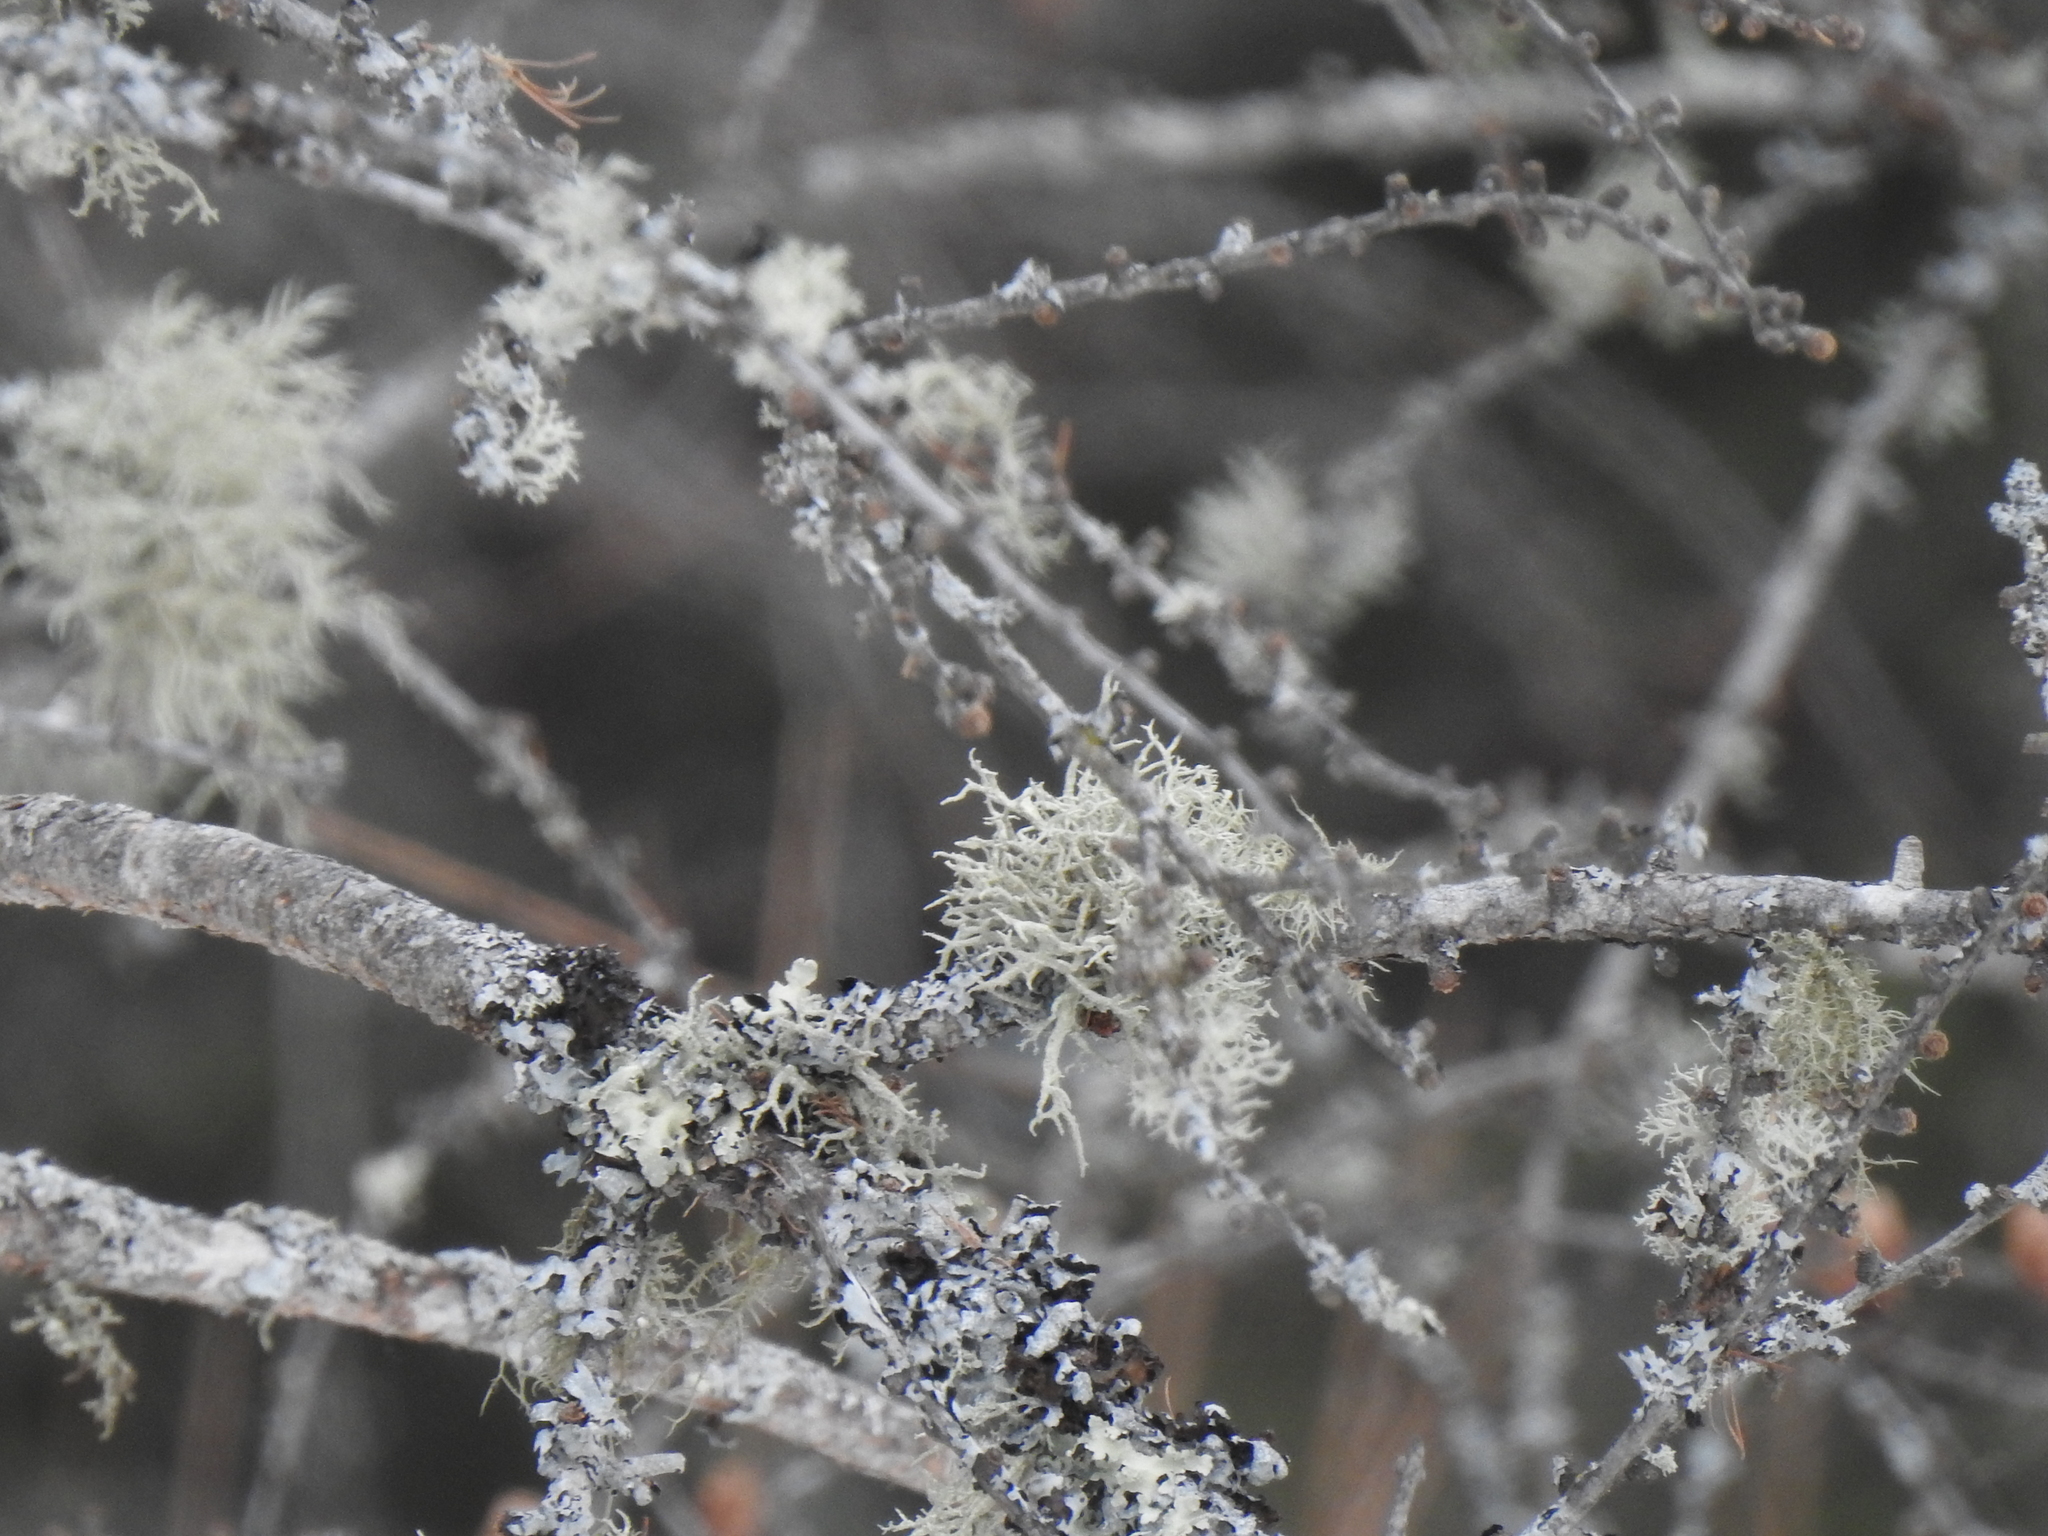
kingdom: Fungi
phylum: Ascomycota
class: Lecanoromycetes
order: Lecanorales
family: Parmeliaceae
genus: Evernia
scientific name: Evernia mesomorpha
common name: Boreal oak moss lichen
